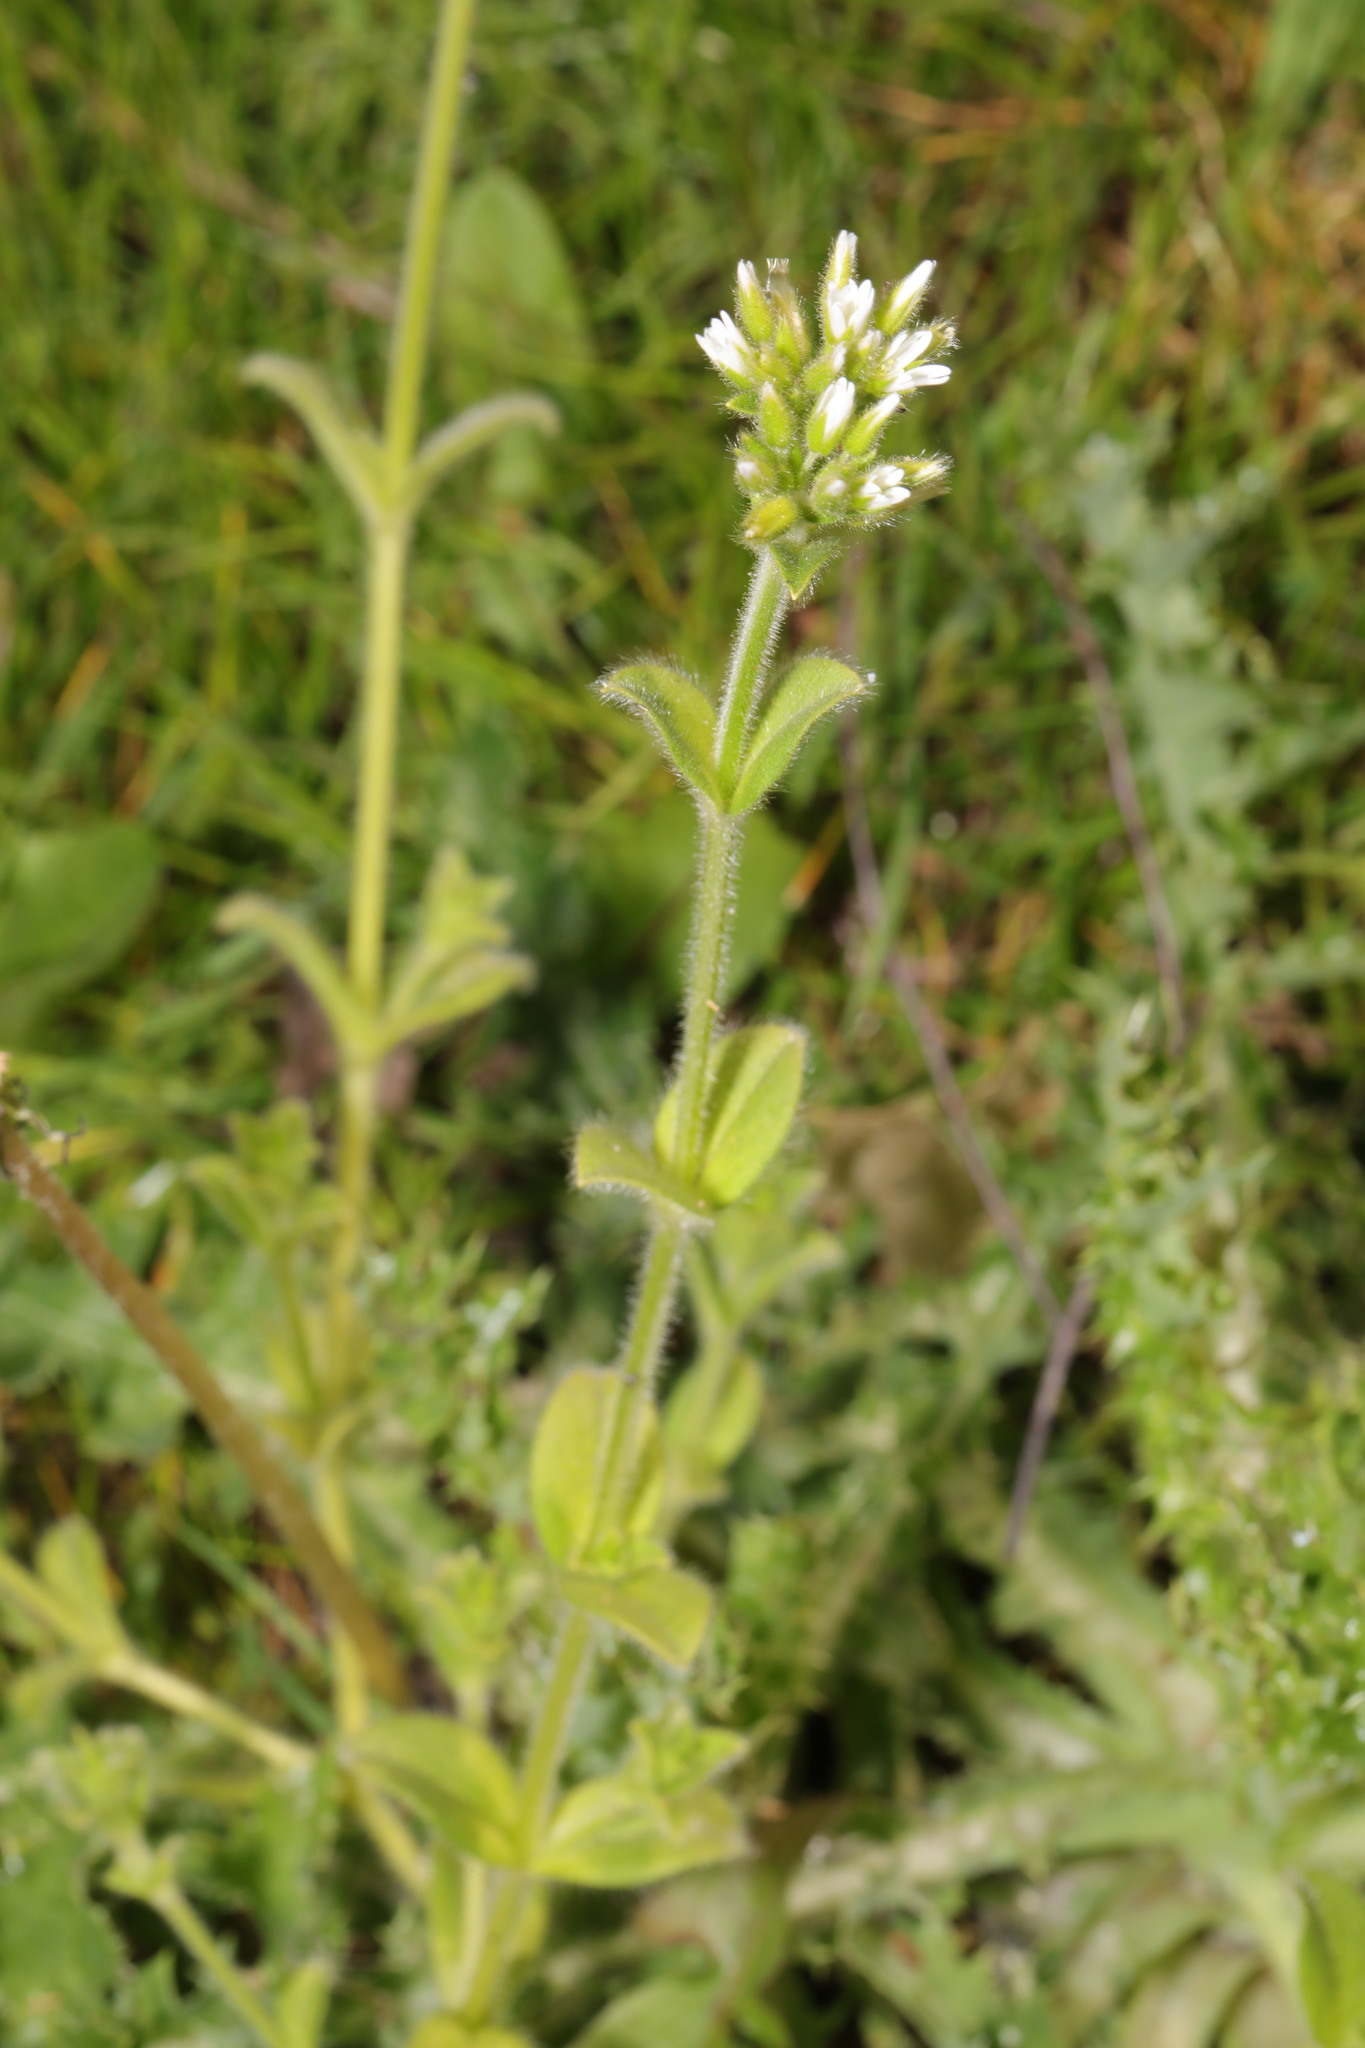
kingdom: Plantae
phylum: Tracheophyta
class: Magnoliopsida
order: Caryophyllales
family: Caryophyllaceae
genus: Cerastium
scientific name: Cerastium glomeratum
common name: Sticky chickweed
